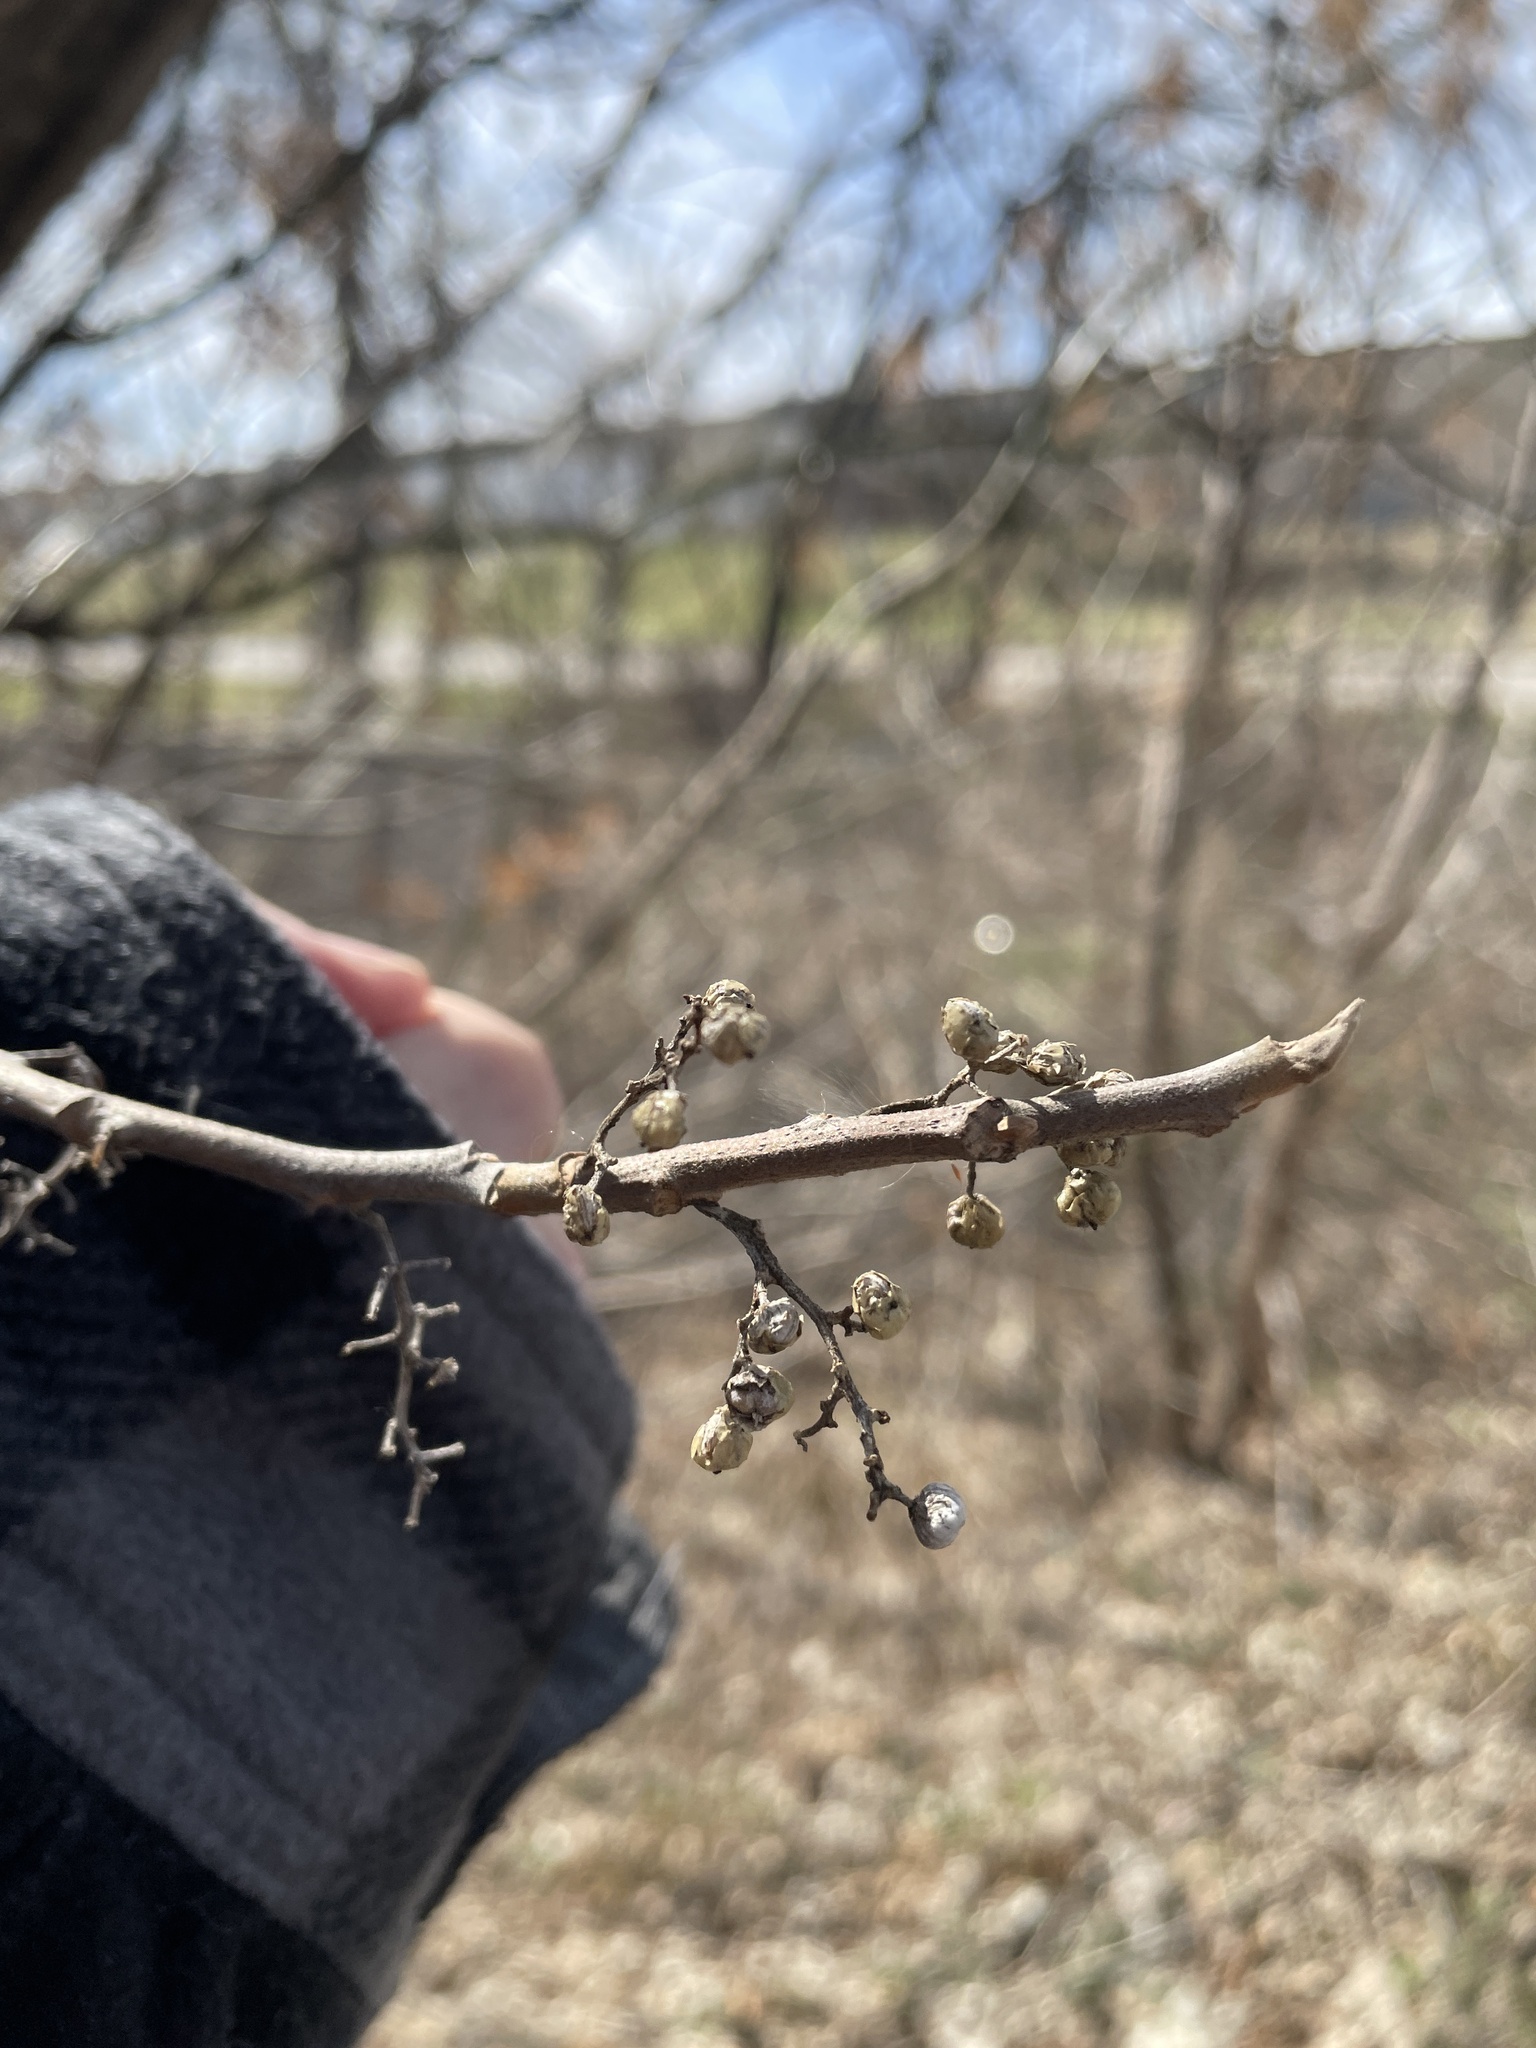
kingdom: Plantae
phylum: Tracheophyta
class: Magnoliopsida
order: Sapindales
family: Anacardiaceae
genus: Toxicodendron
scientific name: Toxicodendron radicans
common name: Poison ivy
